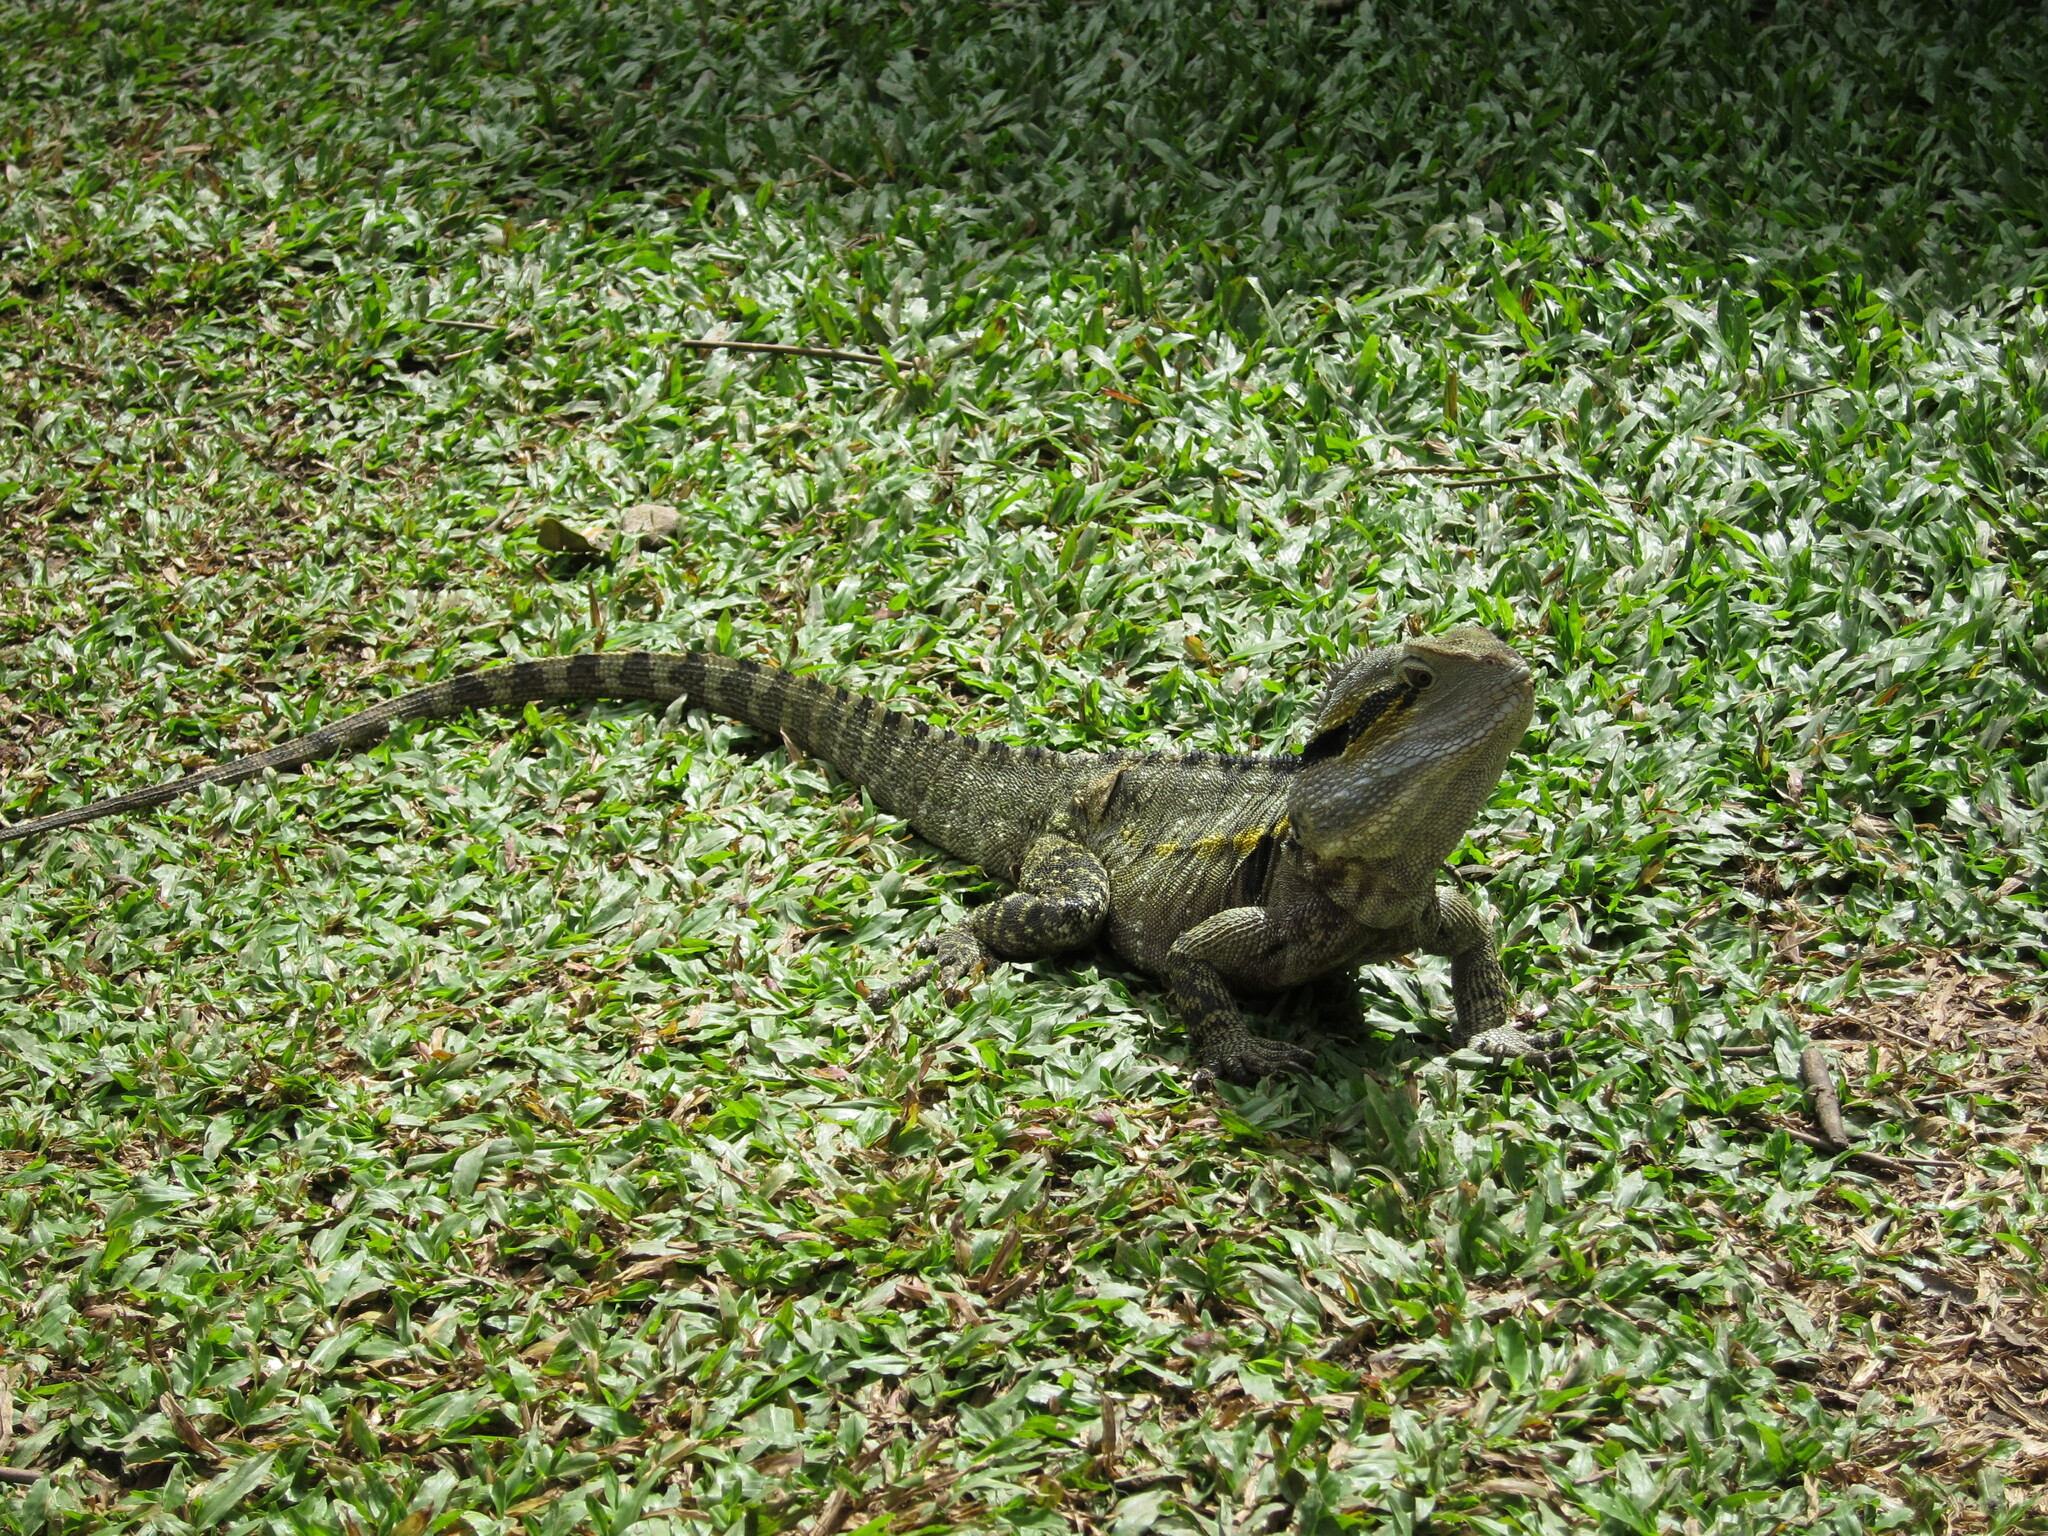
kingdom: Animalia
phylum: Chordata
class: Squamata
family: Agamidae
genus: Intellagama
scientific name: Intellagama lesueurii
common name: Eastern water dragon
